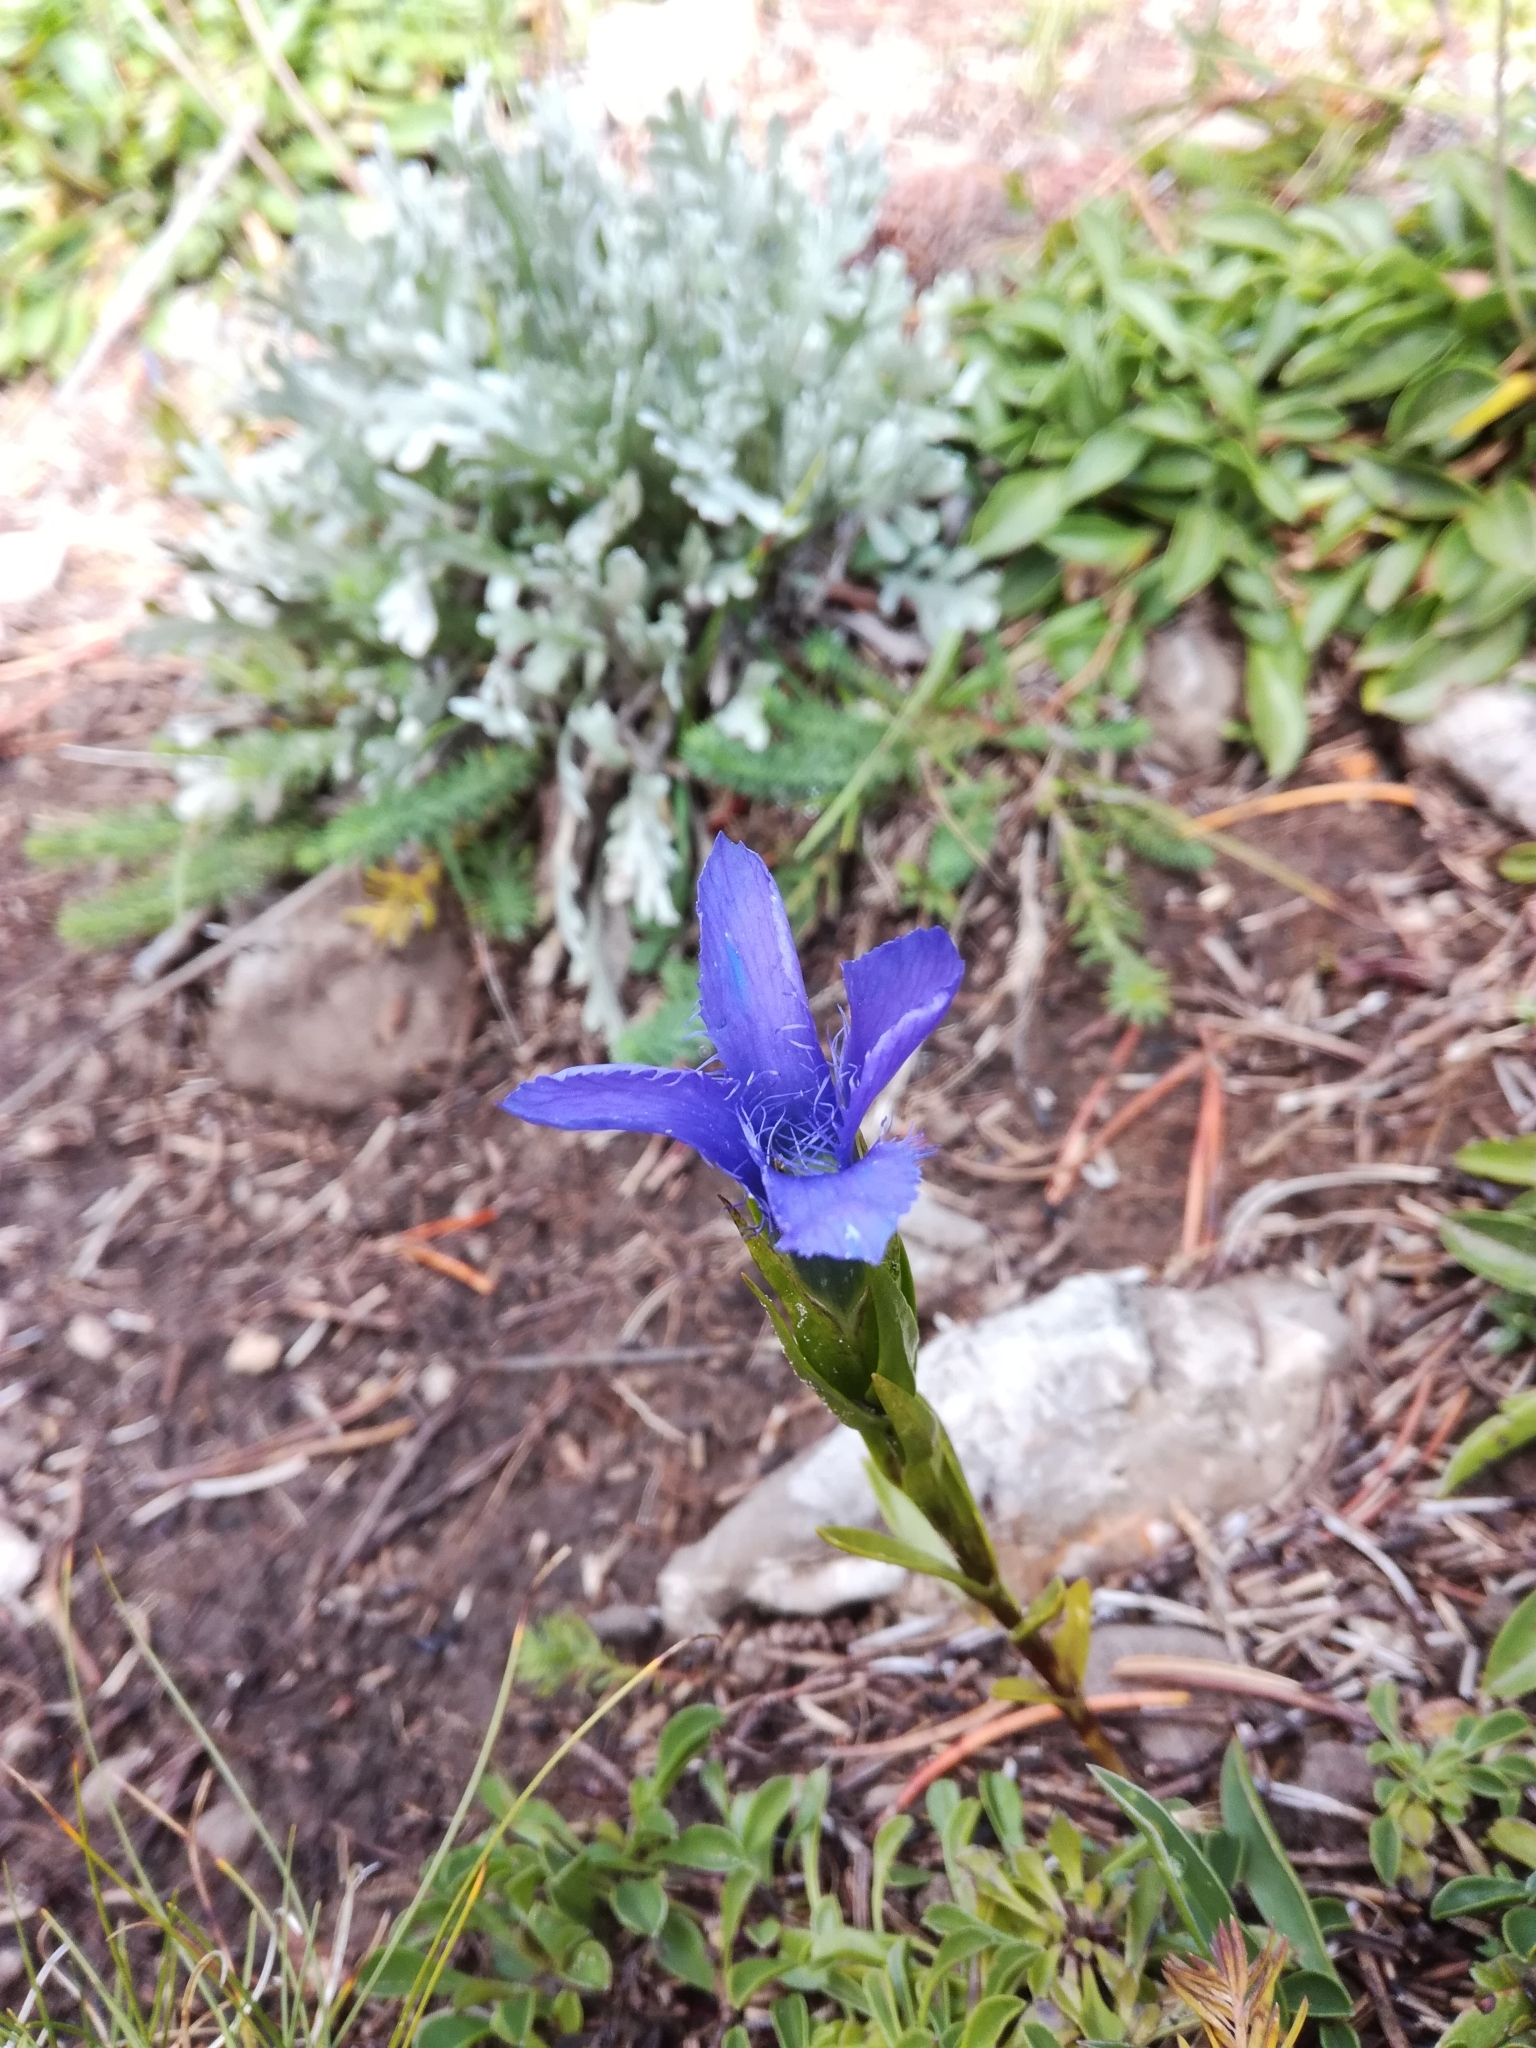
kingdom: Plantae
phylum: Tracheophyta
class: Magnoliopsida
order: Gentianales
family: Gentianaceae
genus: Gentianopsis
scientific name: Gentianopsis ciliata
